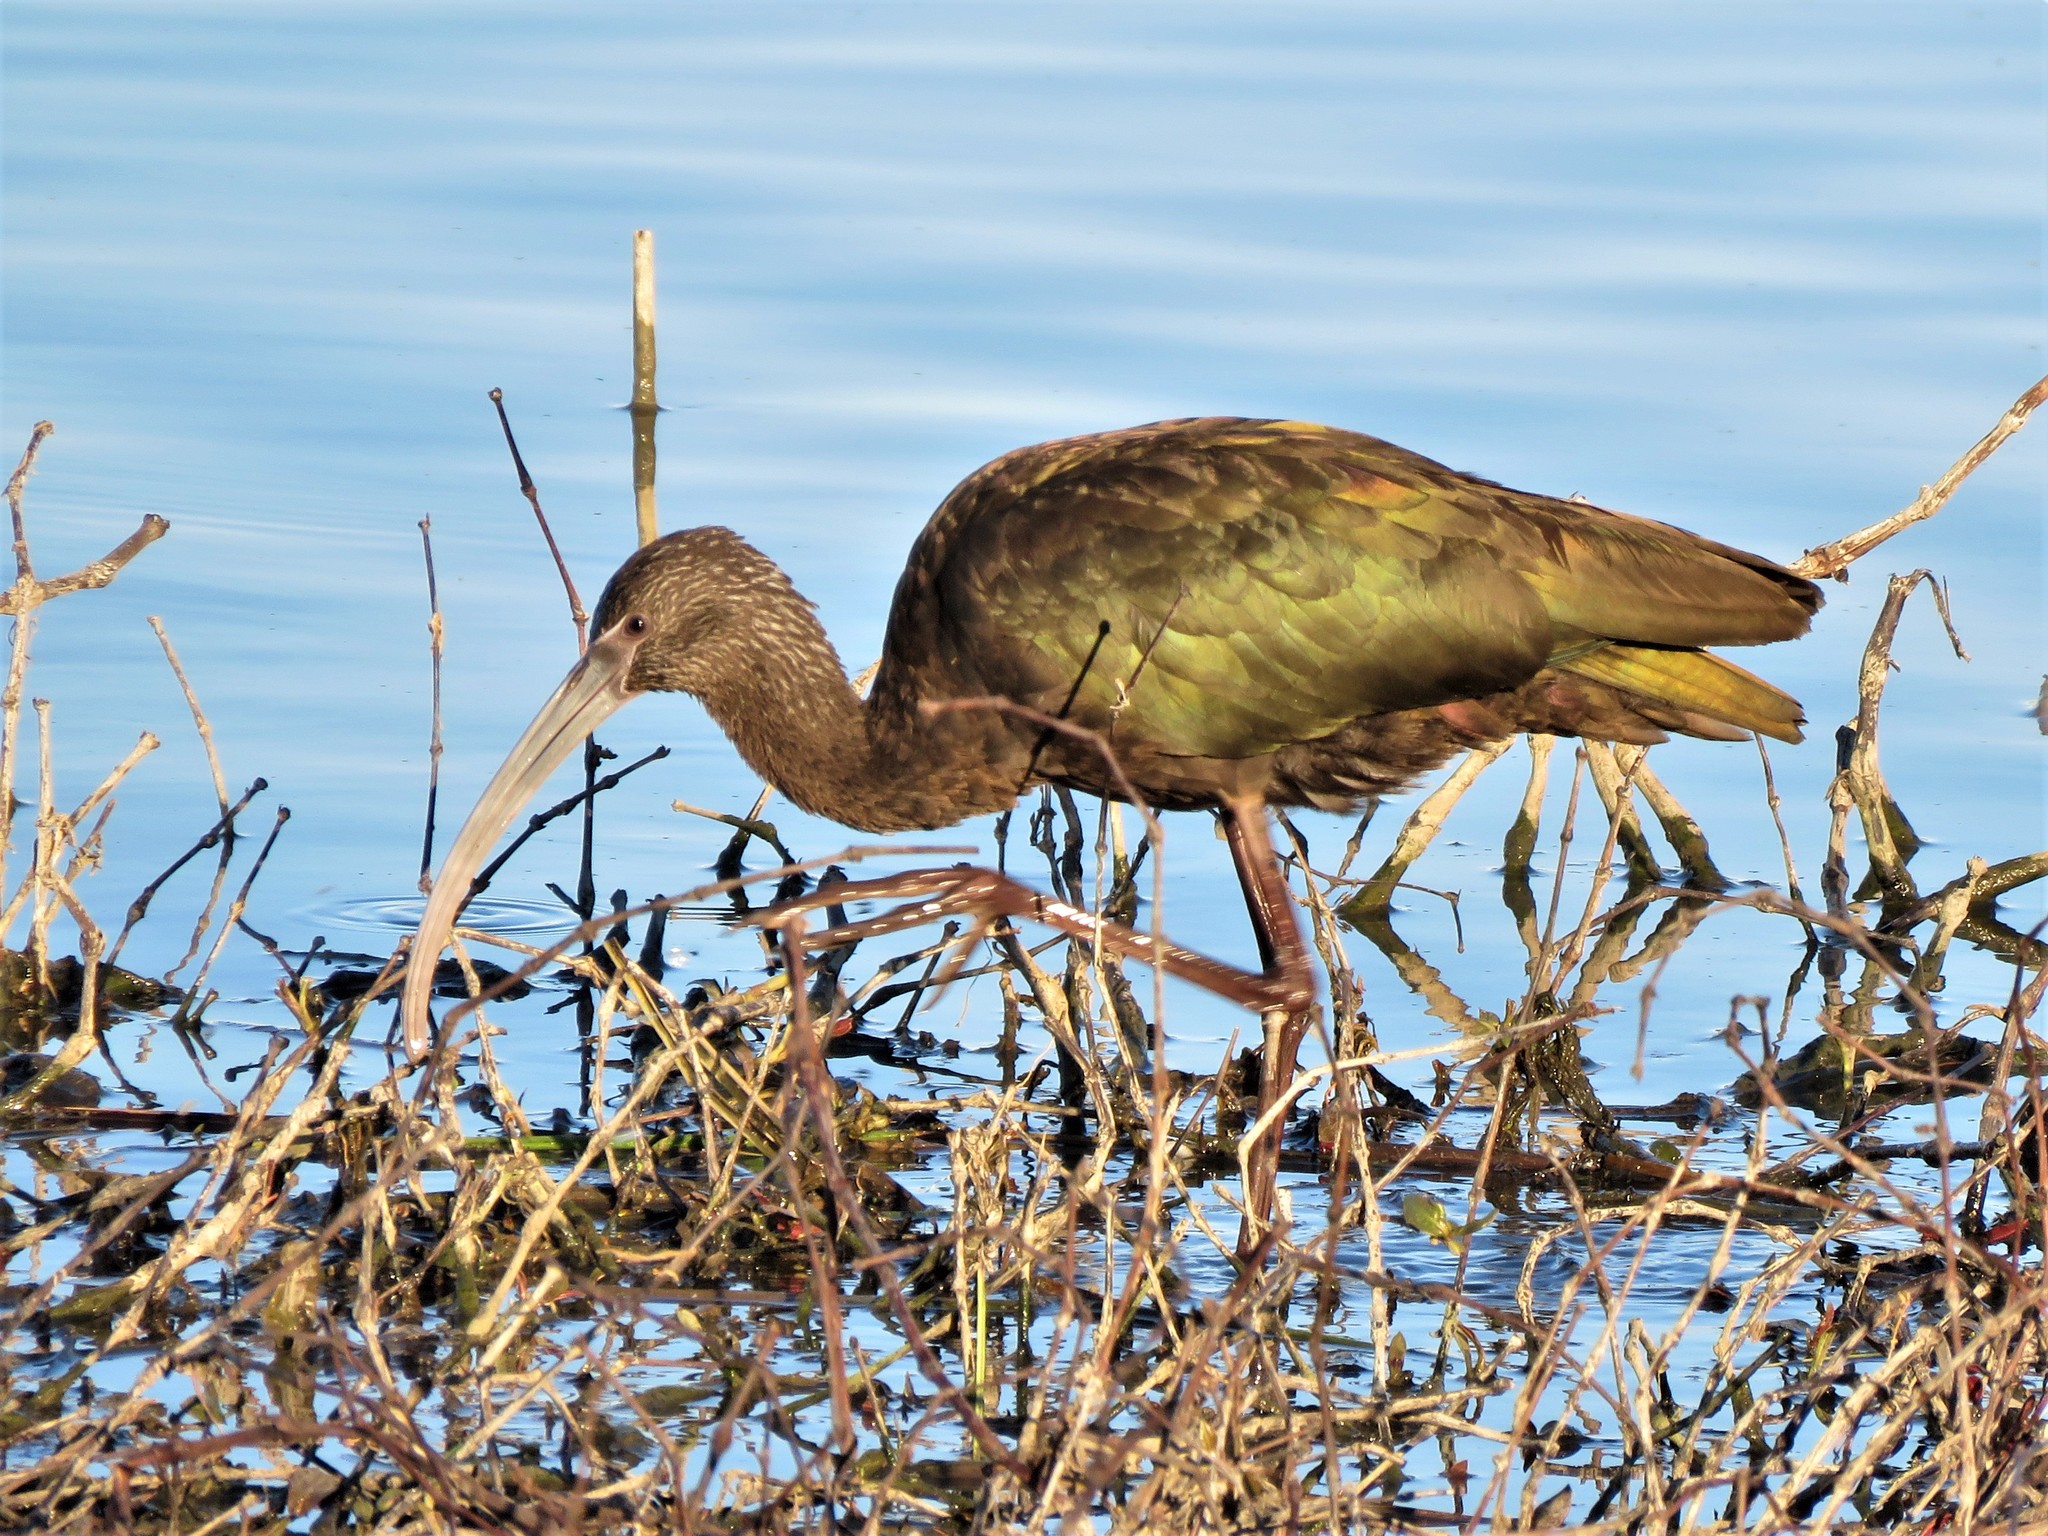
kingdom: Animalia
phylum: Chordata
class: Aves
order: Pelecaniformes
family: Threskiornithidae
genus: Plegadis
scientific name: Plegadis chihi
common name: White-faced ibis
